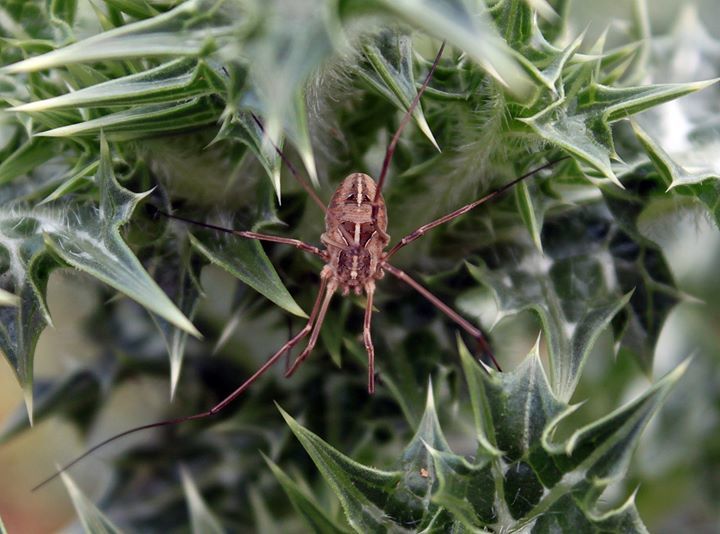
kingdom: Animalia
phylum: Arthropoda
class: Arachnida
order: Opiliones
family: Phalangiidae
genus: Metaphalangium
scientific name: Metaphalangium cirtanum
